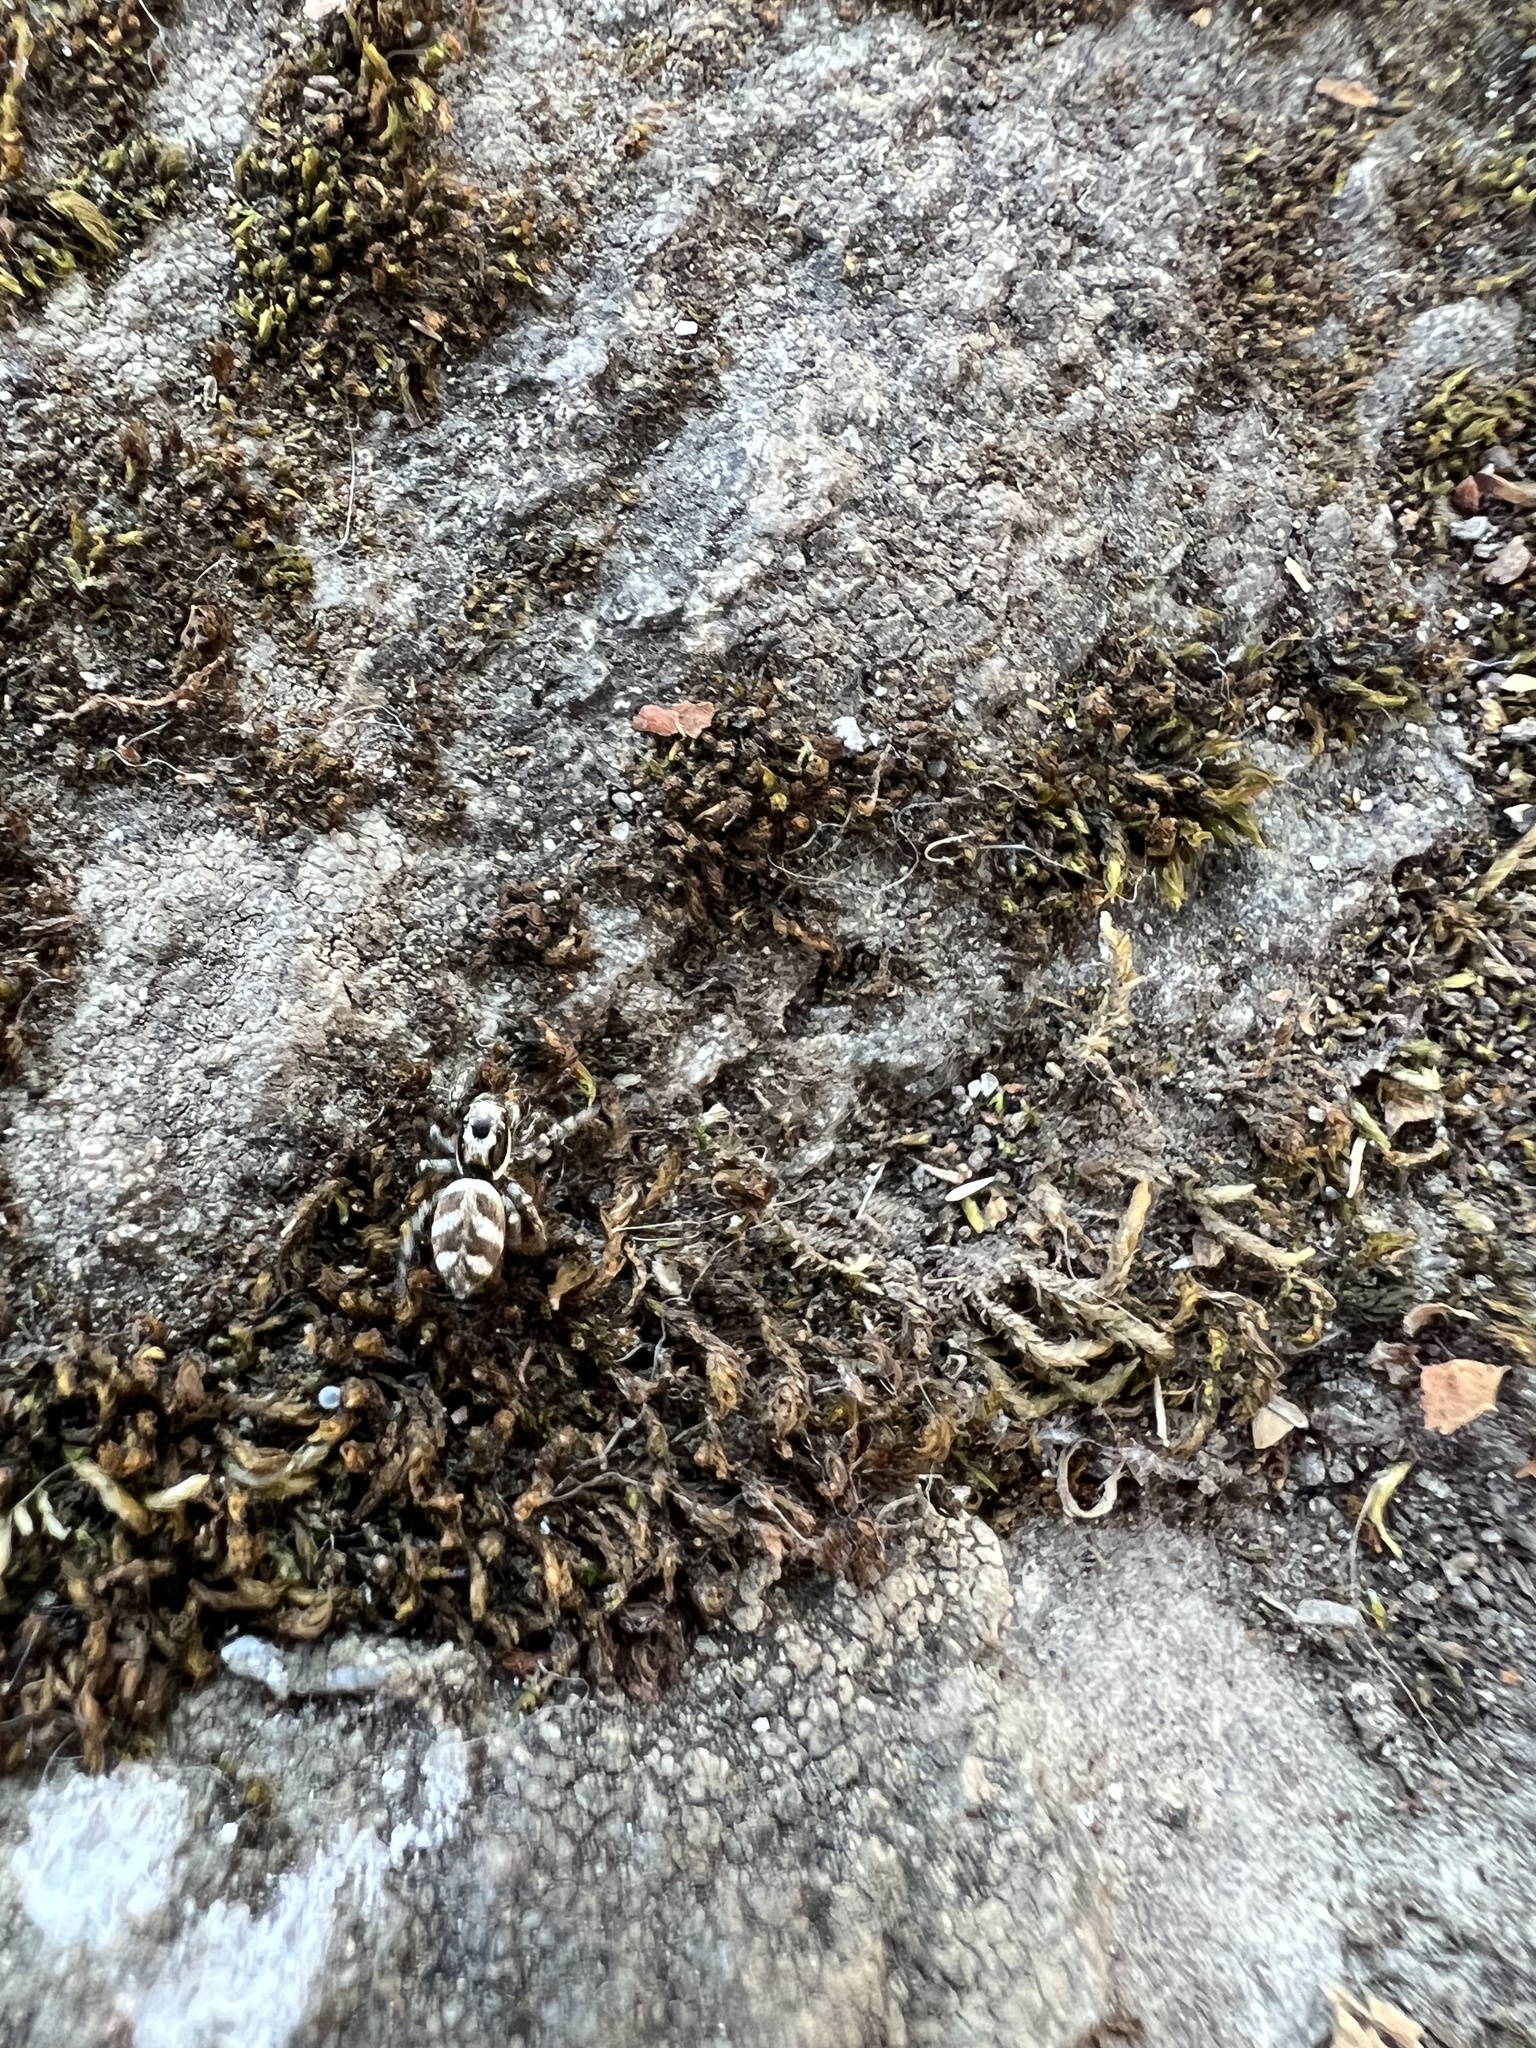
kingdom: Animalia
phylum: Arthropoda
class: Arachnida
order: Araneae
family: Salticidae
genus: Salticus
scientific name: Salticus scenicus
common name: Zebra jumper
